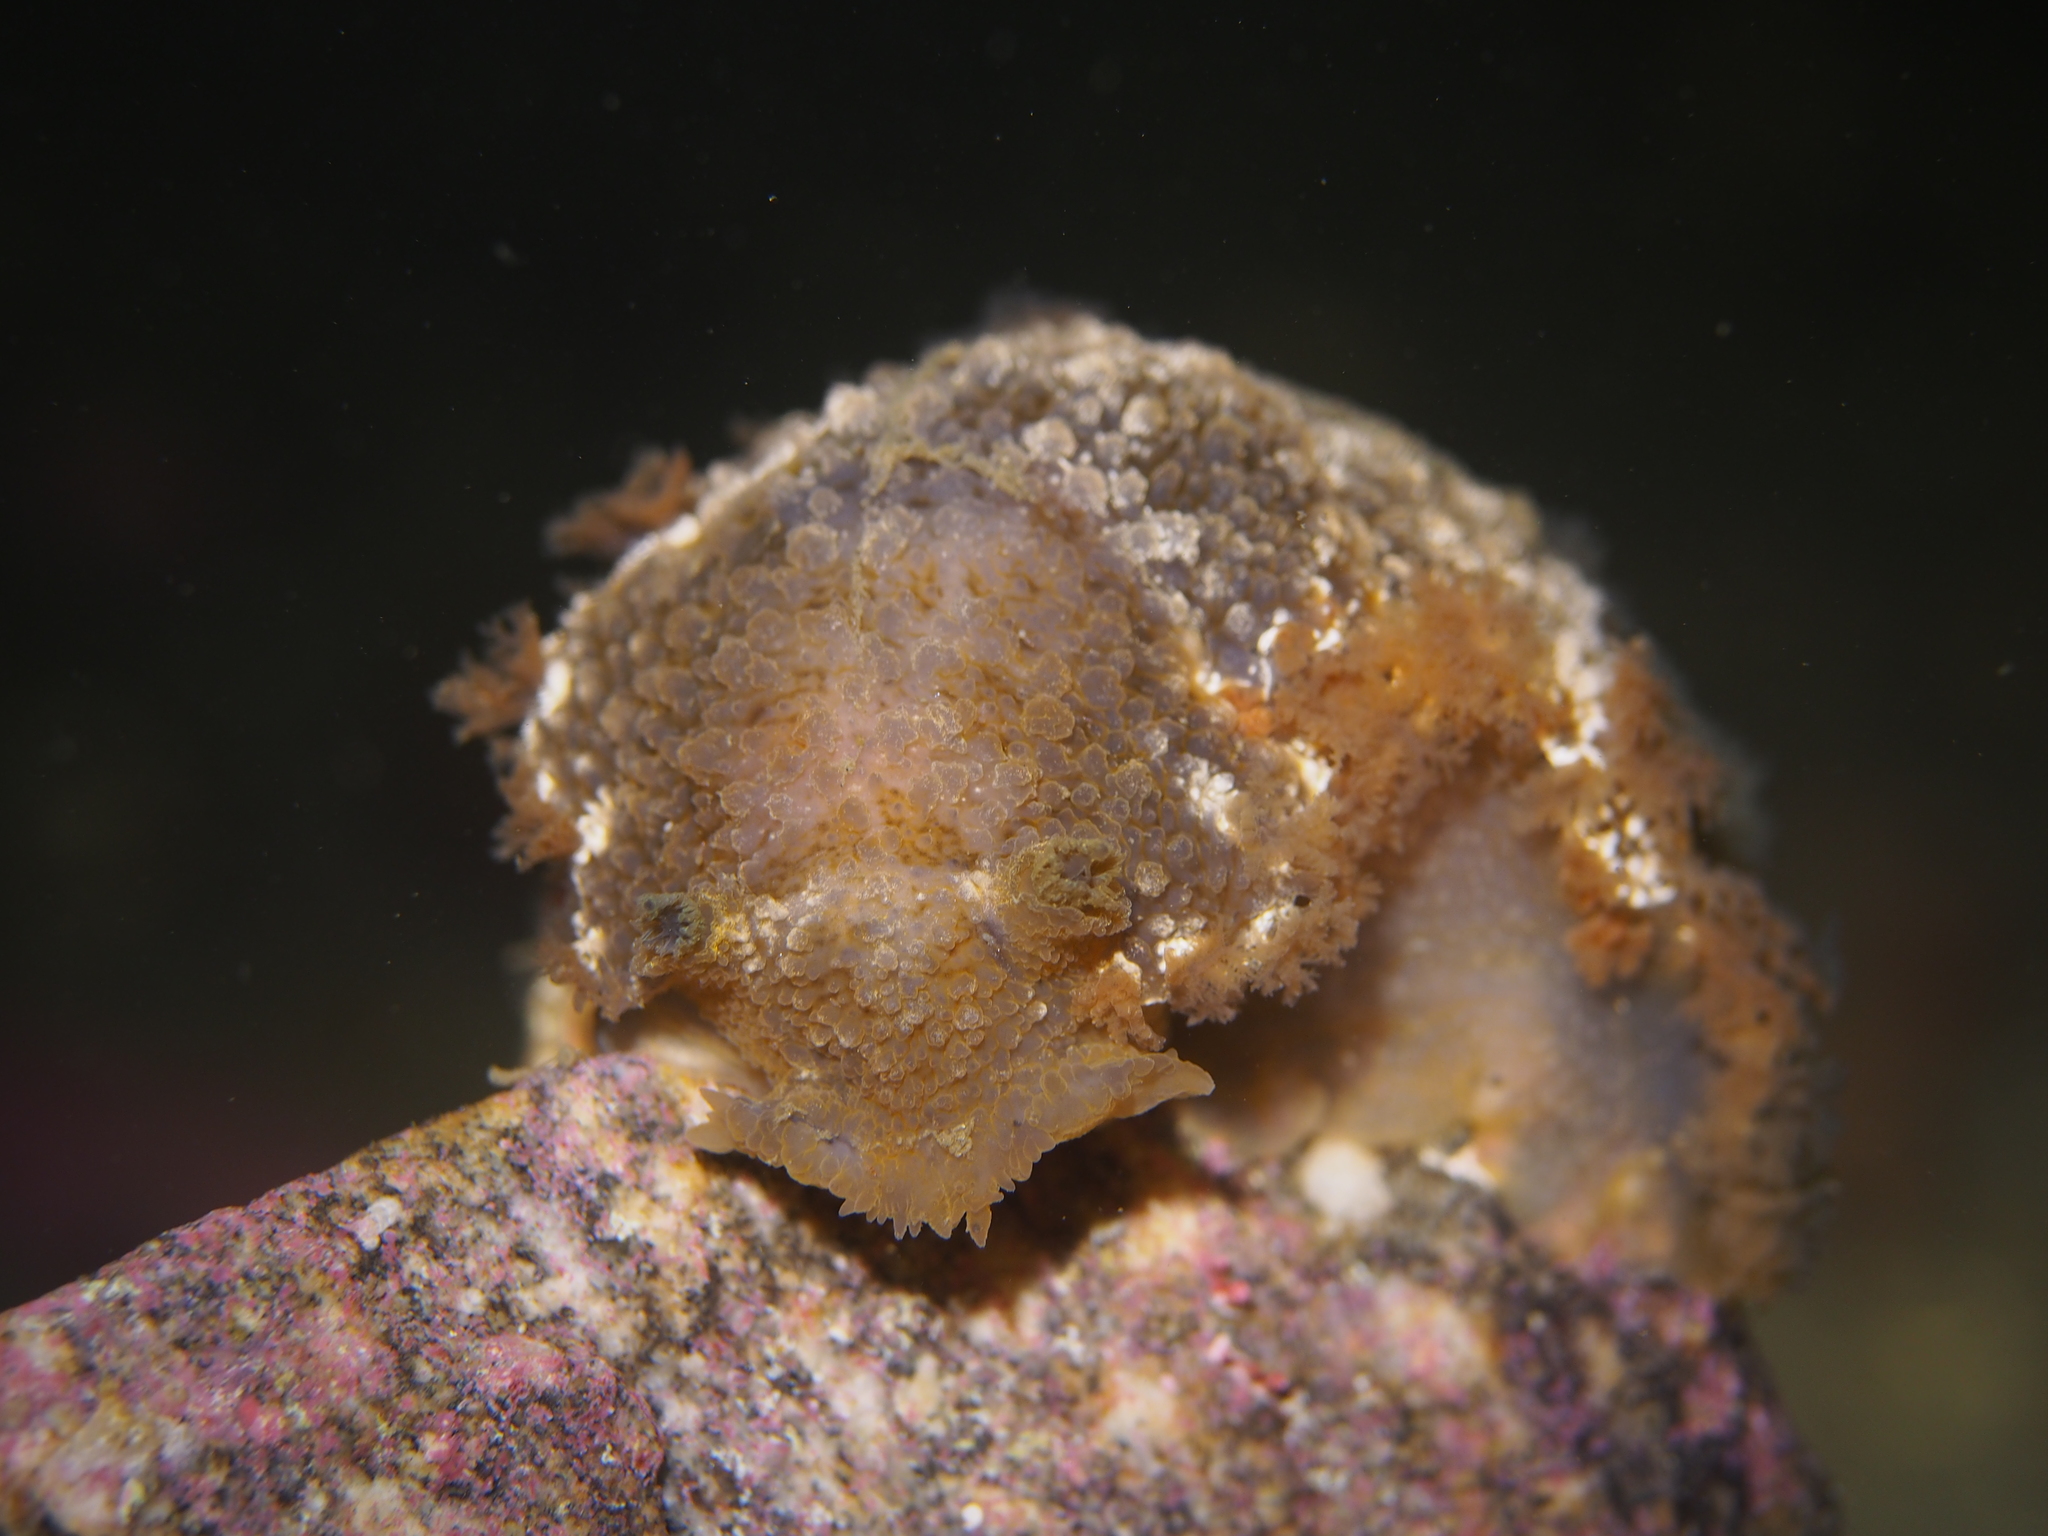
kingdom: Animalia
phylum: Mollusca
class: Gastropoda
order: Nudibranchia
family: Tritoniidae
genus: Tritonia
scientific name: Tritonia hombergii
